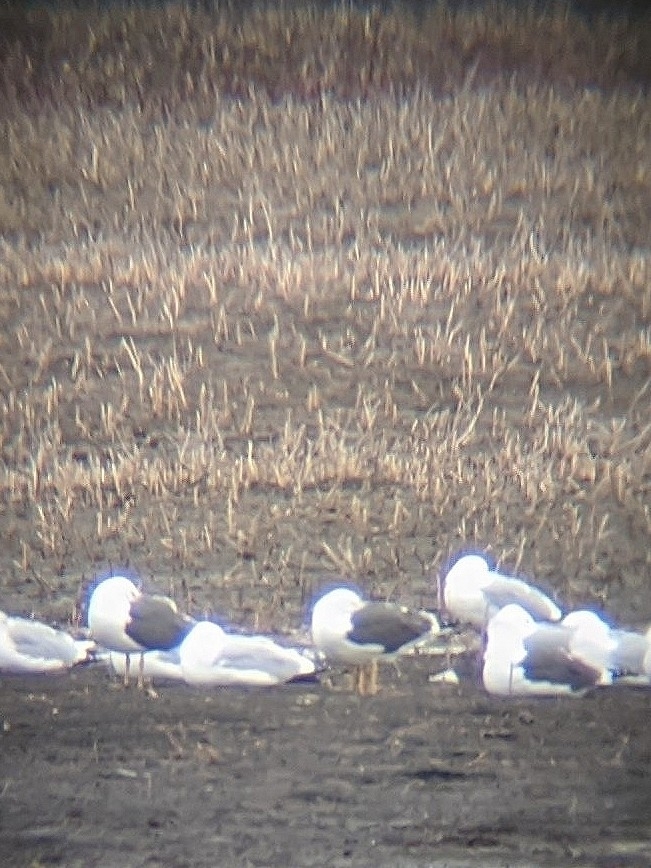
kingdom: Animalia
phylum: Chordata
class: Aves
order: Charadriiformes
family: Laridae
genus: Larus
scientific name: Larus fuscus
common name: Lesser black-backed gull
